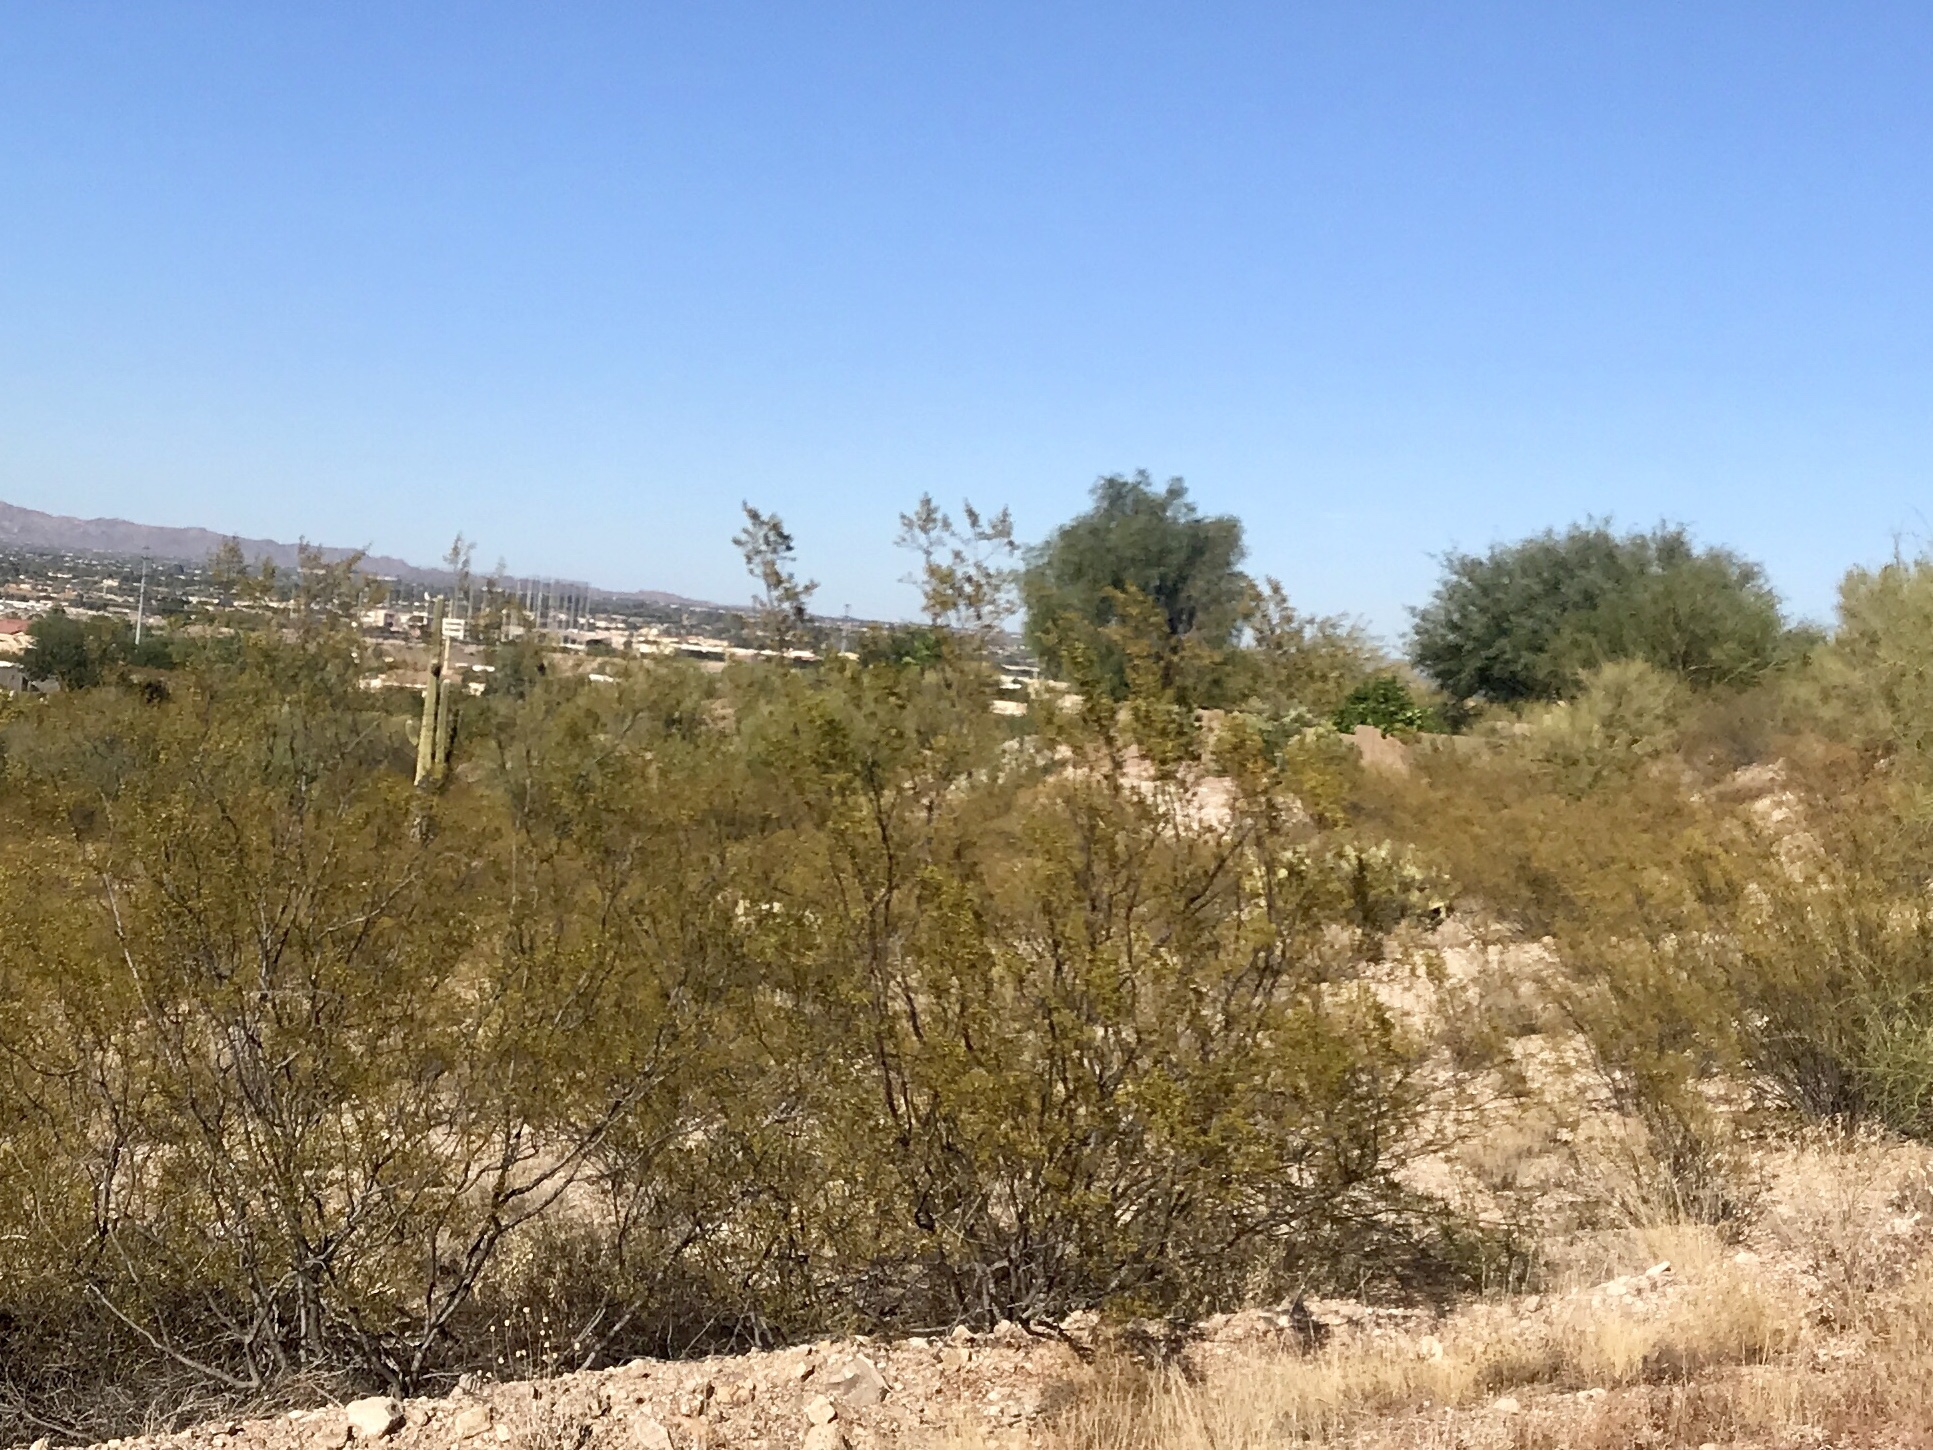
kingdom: Plantae
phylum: Tracheophyta
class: Magnoliopsida
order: Zygophyllales
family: Zygophyllaceae
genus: Larrea
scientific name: Larrea tridentata
